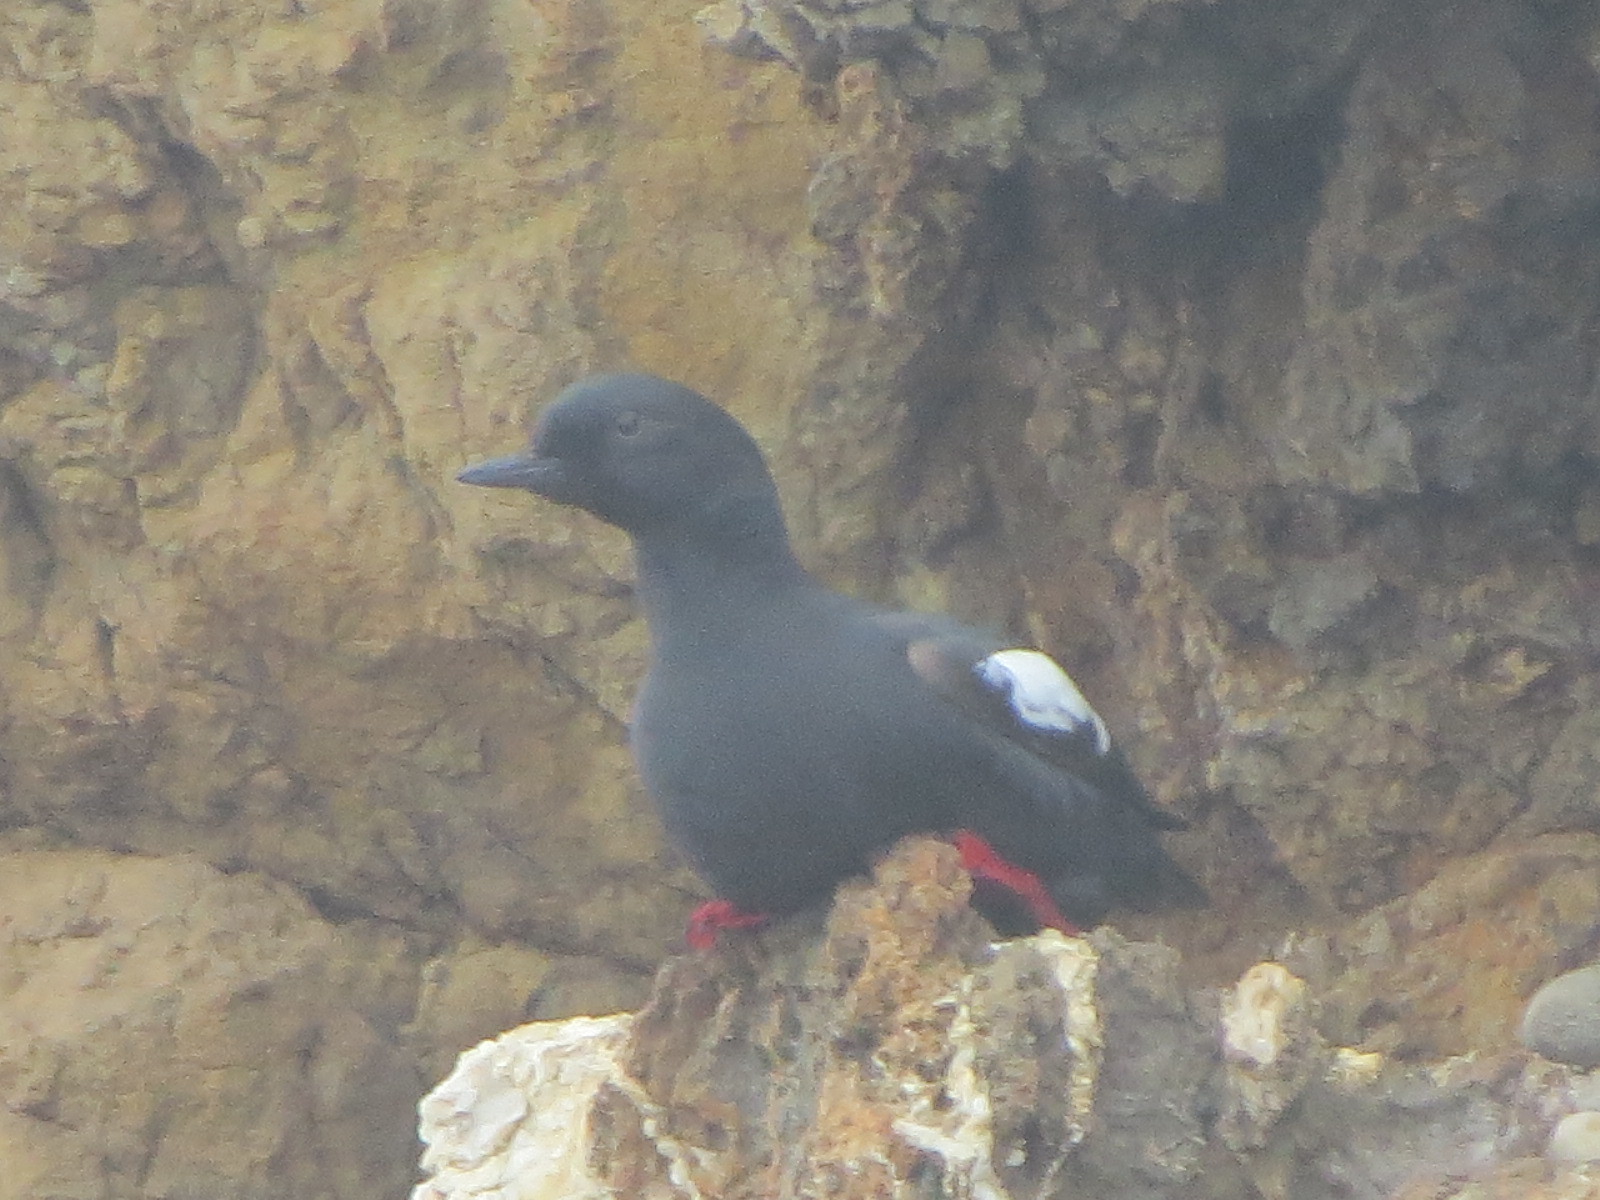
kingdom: Animalia
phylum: Chordata
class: Aves
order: Charadriiformes
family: Alcidae
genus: Cepphus
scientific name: Cepphus columba
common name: Pigeon guillemot
